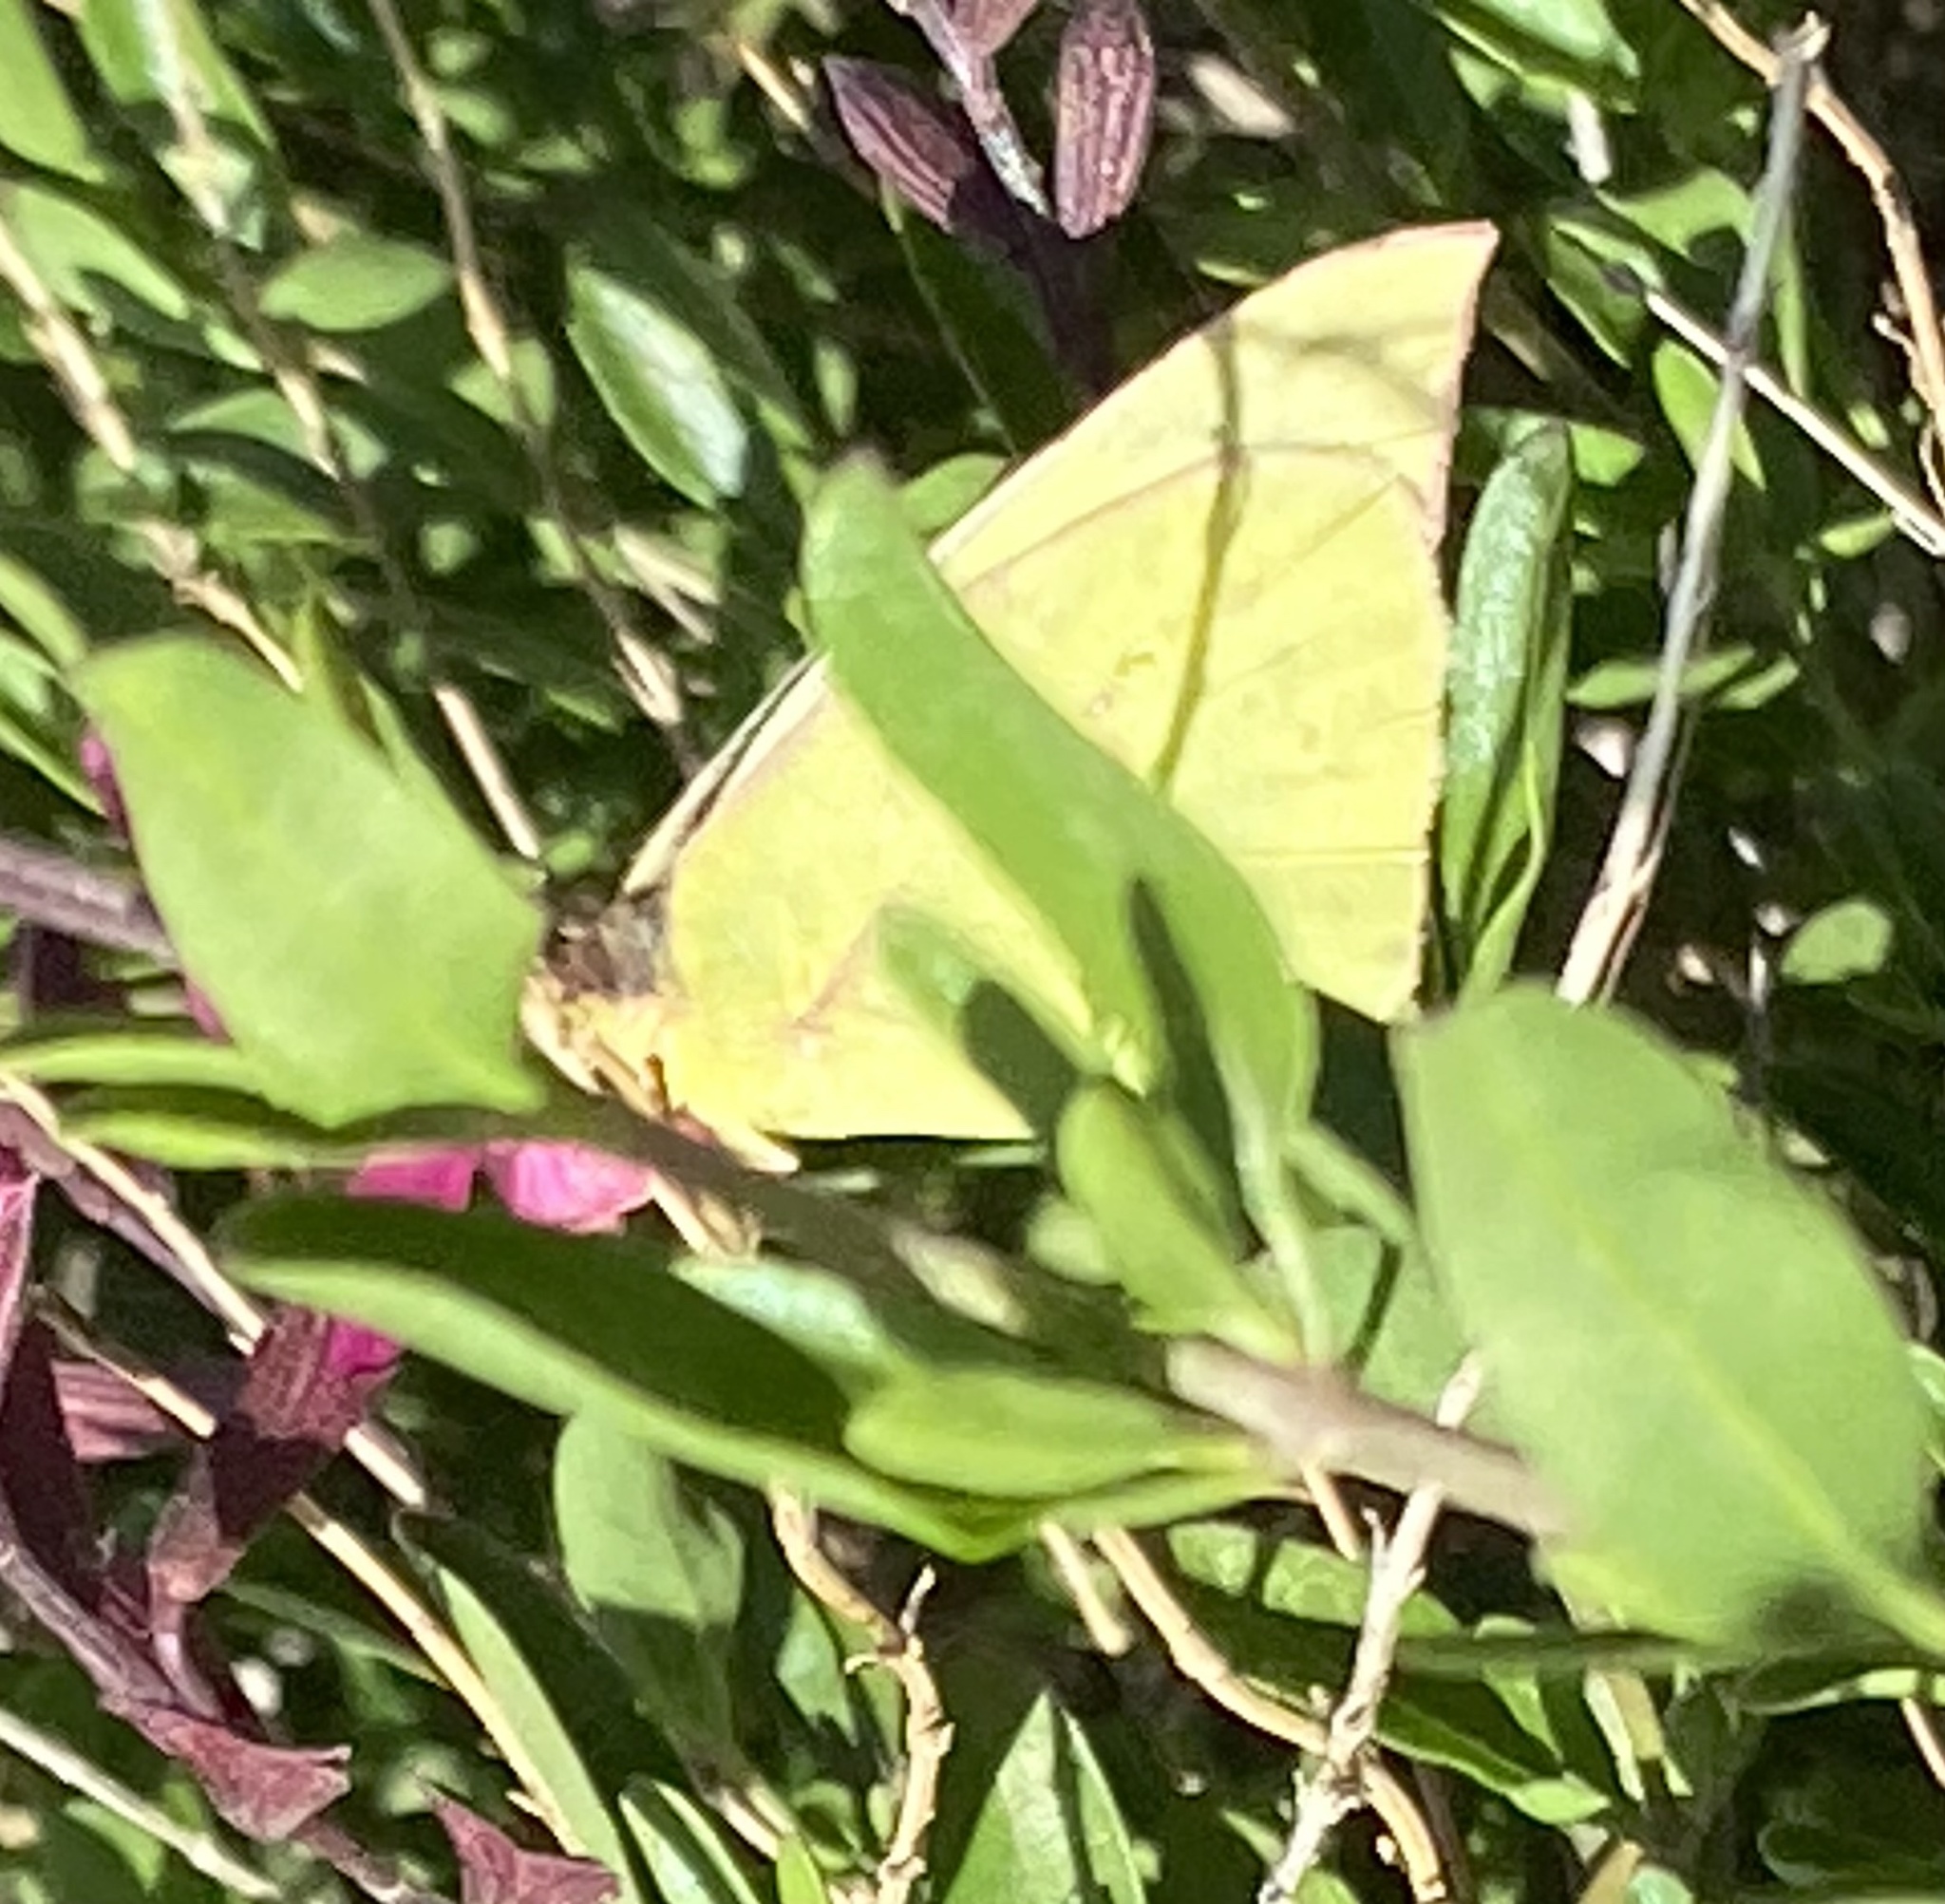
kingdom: Animalia
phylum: Arthropoda
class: Insecta
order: Lepidoptera
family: Pieridae
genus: Zerene
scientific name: Zerene cesonia
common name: Southern dogface
